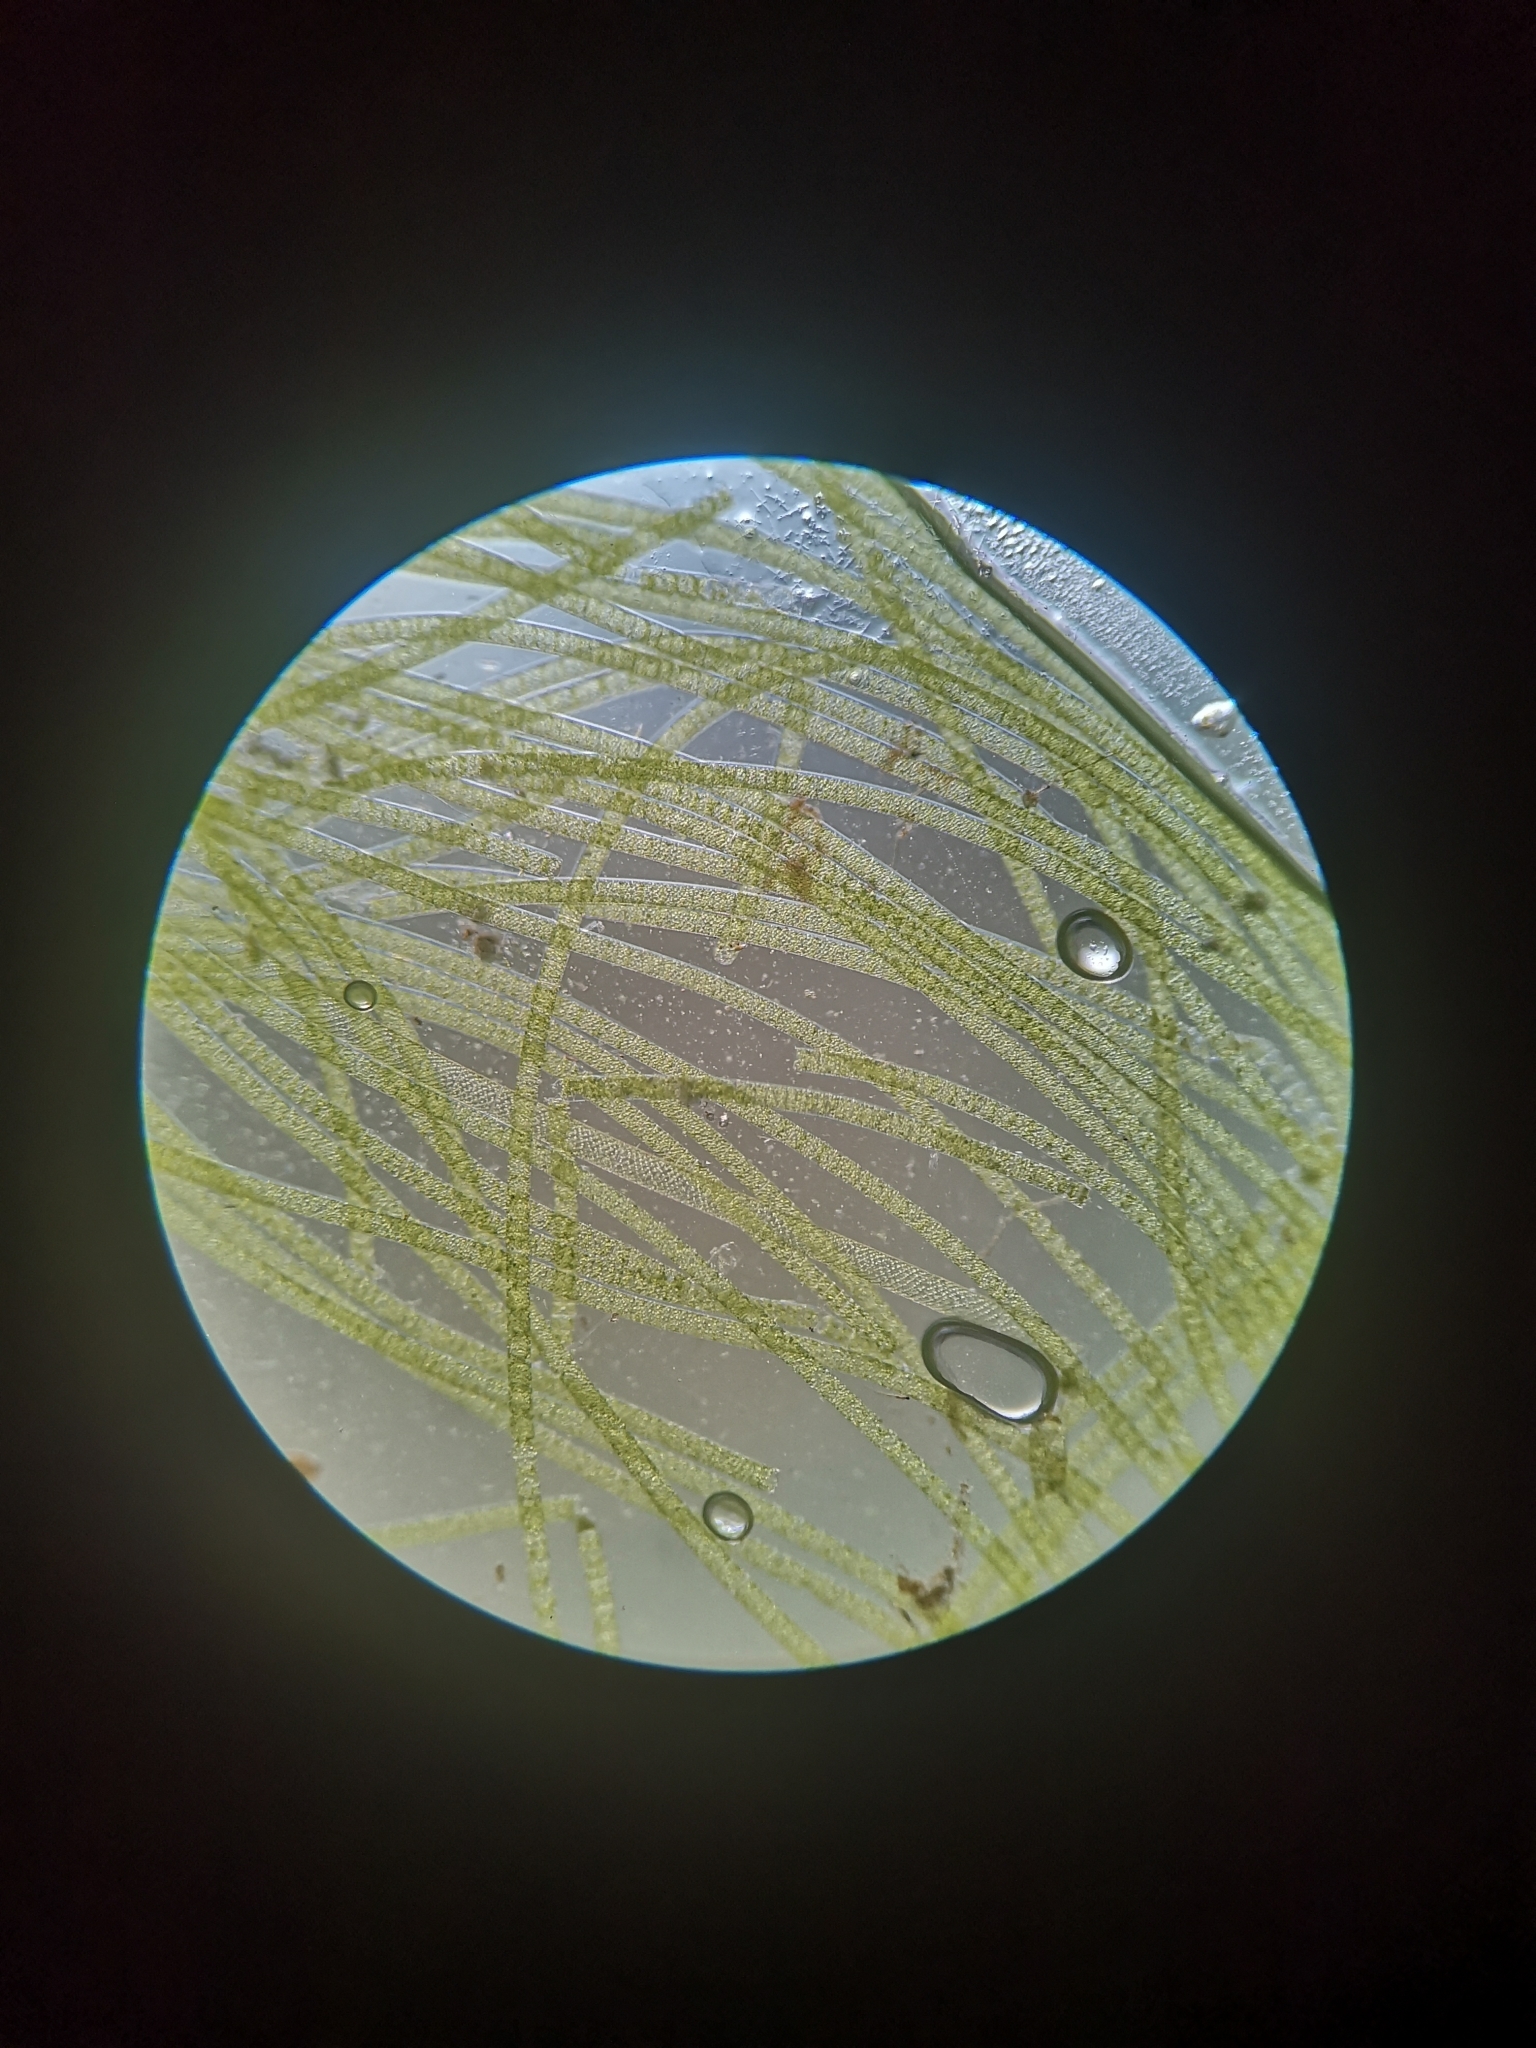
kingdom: Plantae
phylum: Charophyta
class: Zygnematophyceae
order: Zygnematales
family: Zygnemataceae
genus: Spirogyra
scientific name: Spirogyra
